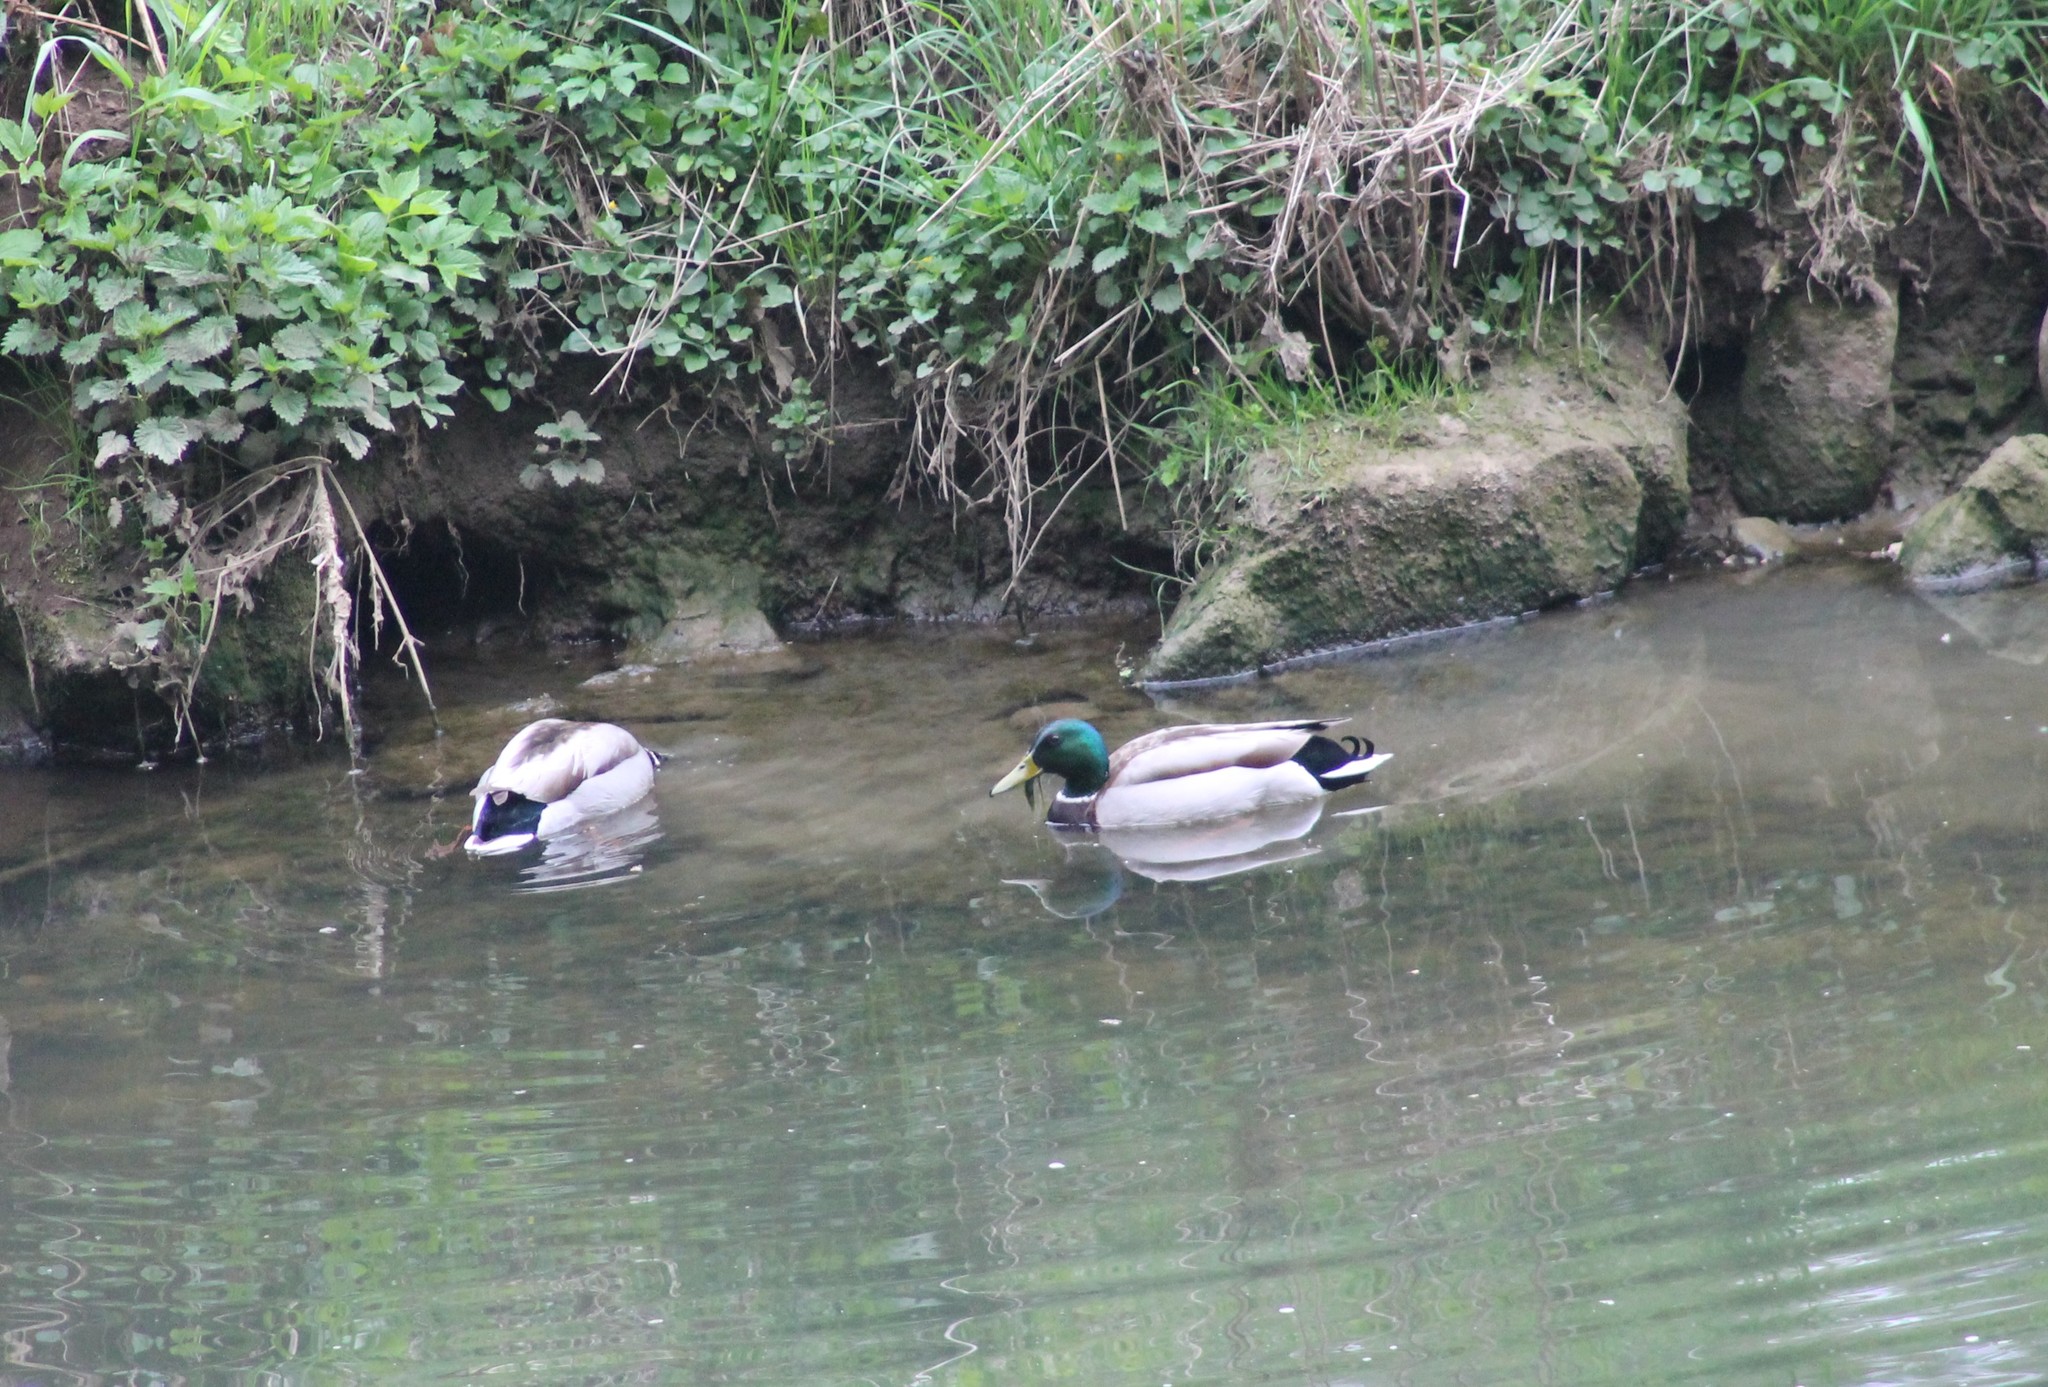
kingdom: Animalia
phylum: Chordata
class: Aves
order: Anseriformes
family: Anatidae
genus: Anas
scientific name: Anas platyrhynchos
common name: Mallard
